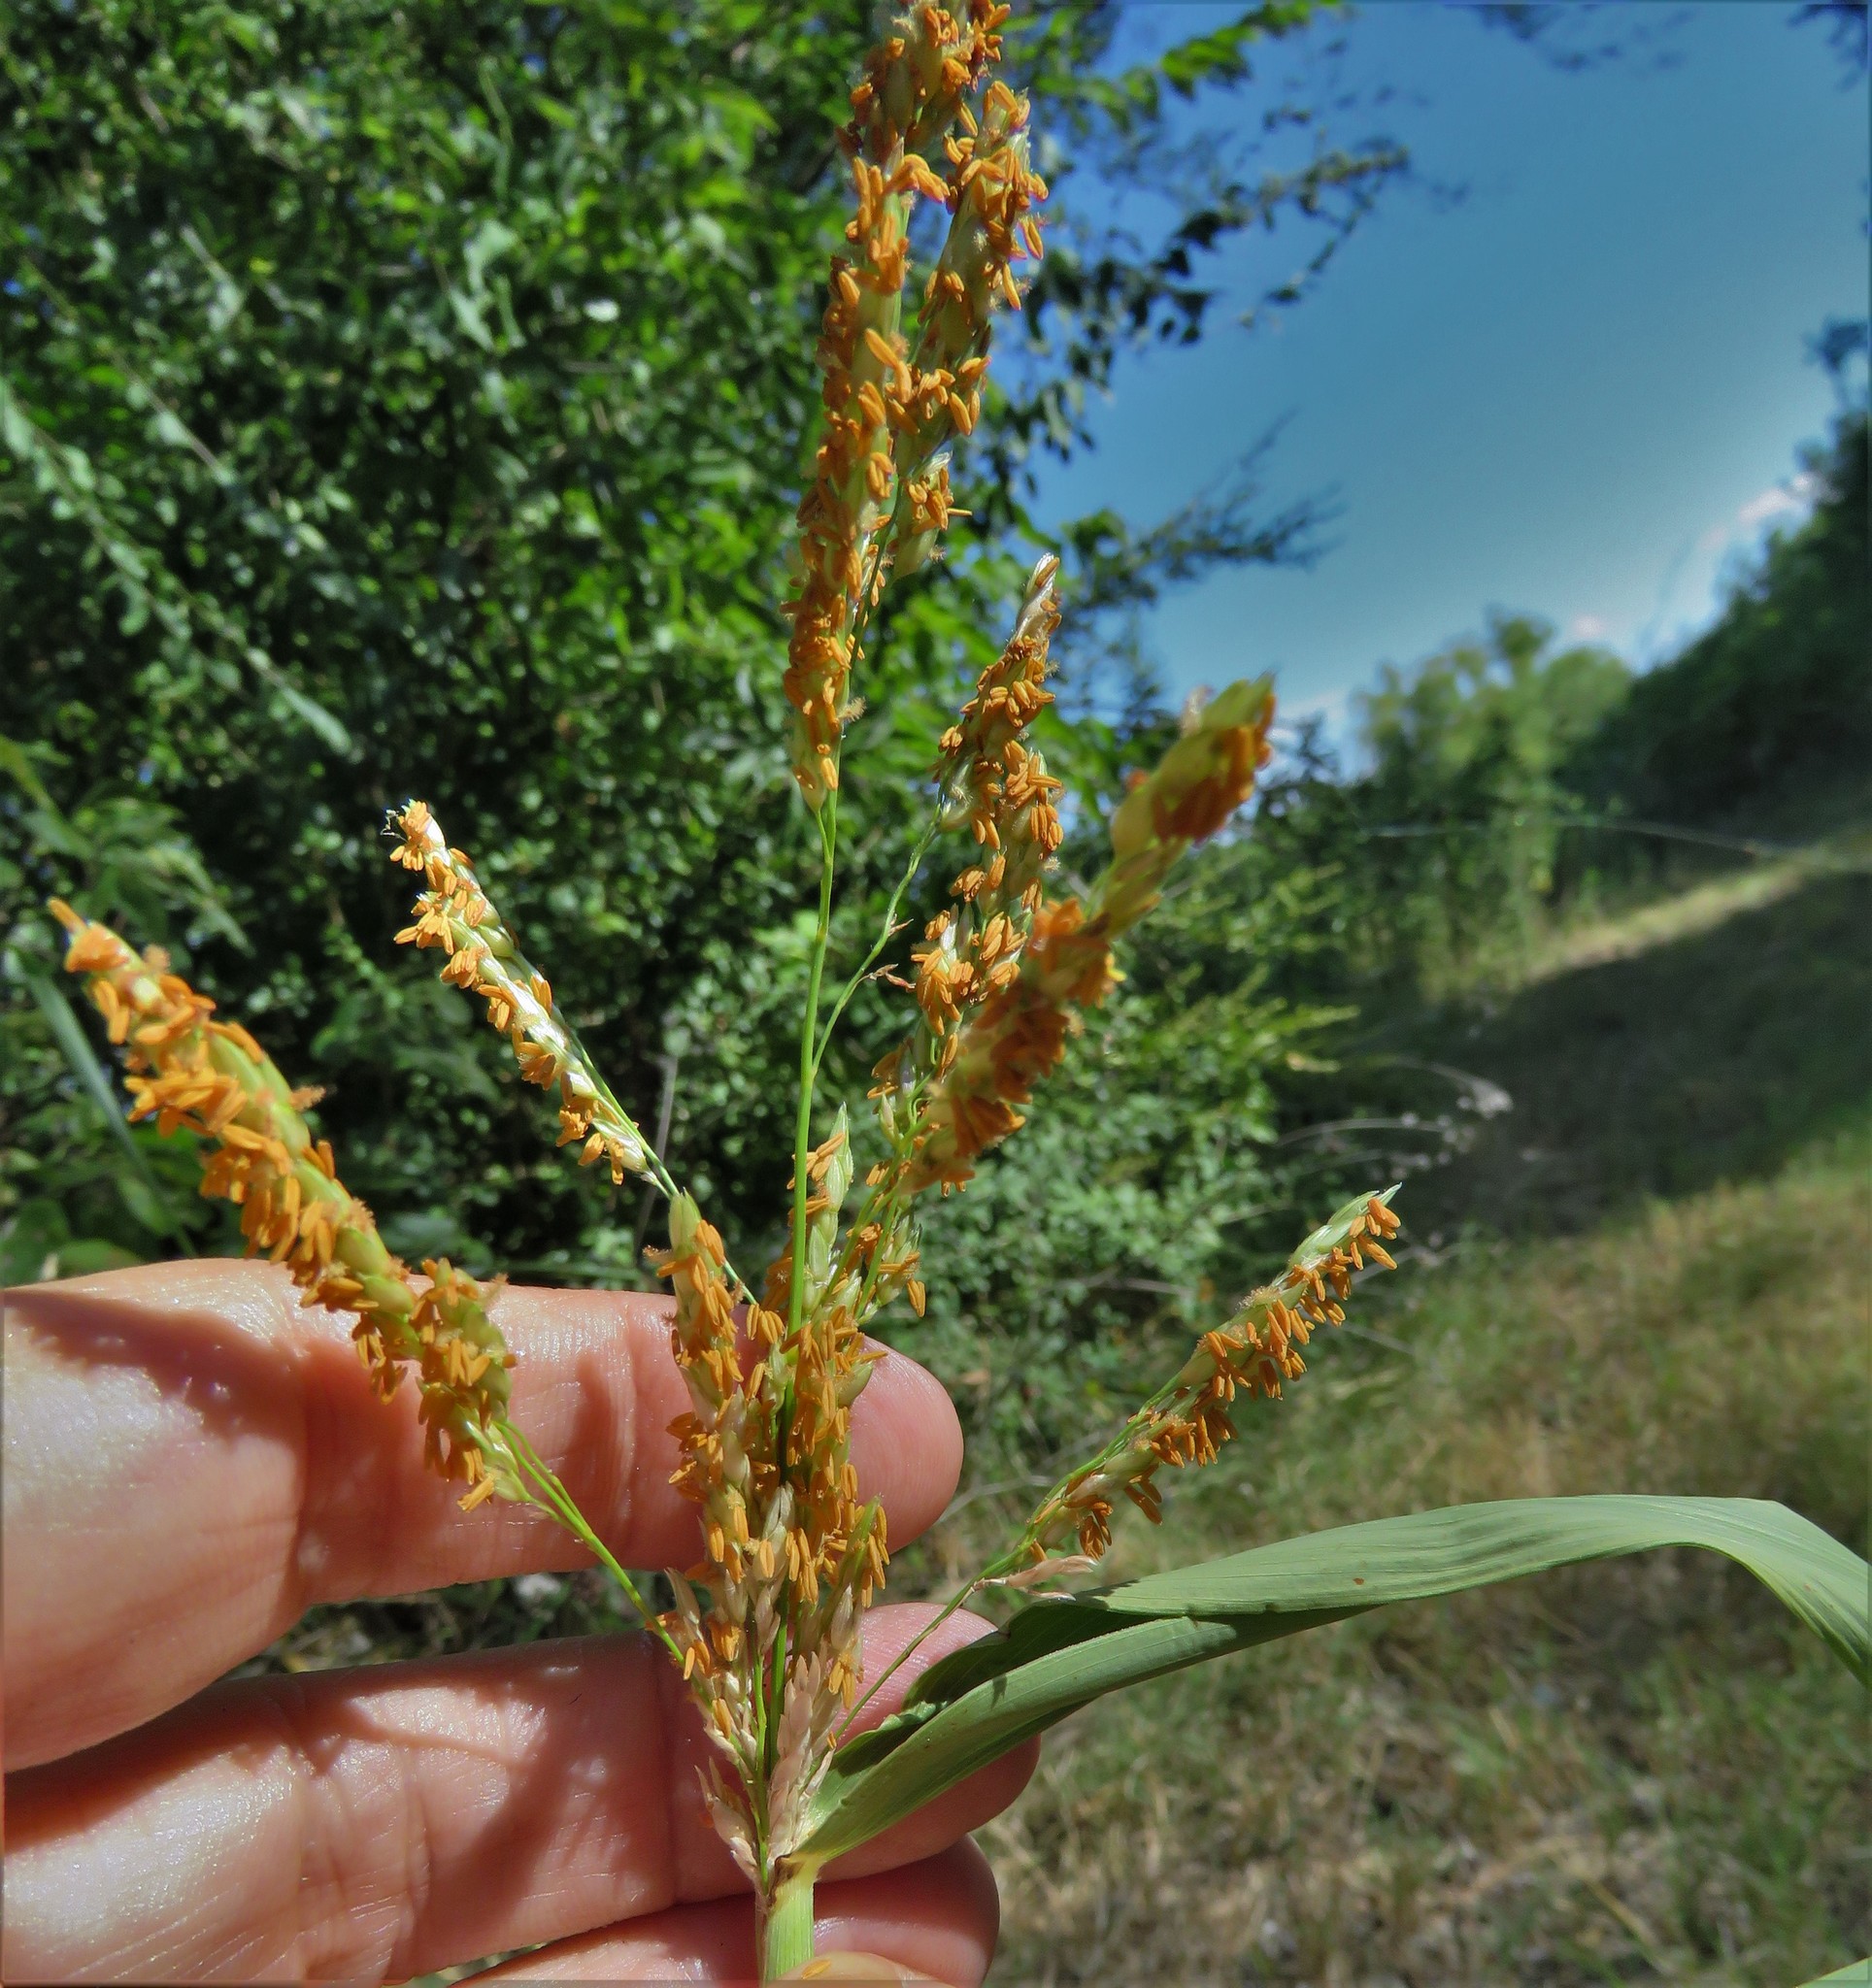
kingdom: Plantae
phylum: Tracheophyta
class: Liliopsida
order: Poales
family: Poaceae
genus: Sorghum
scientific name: Sorghum halepense
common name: Johnson-grass
